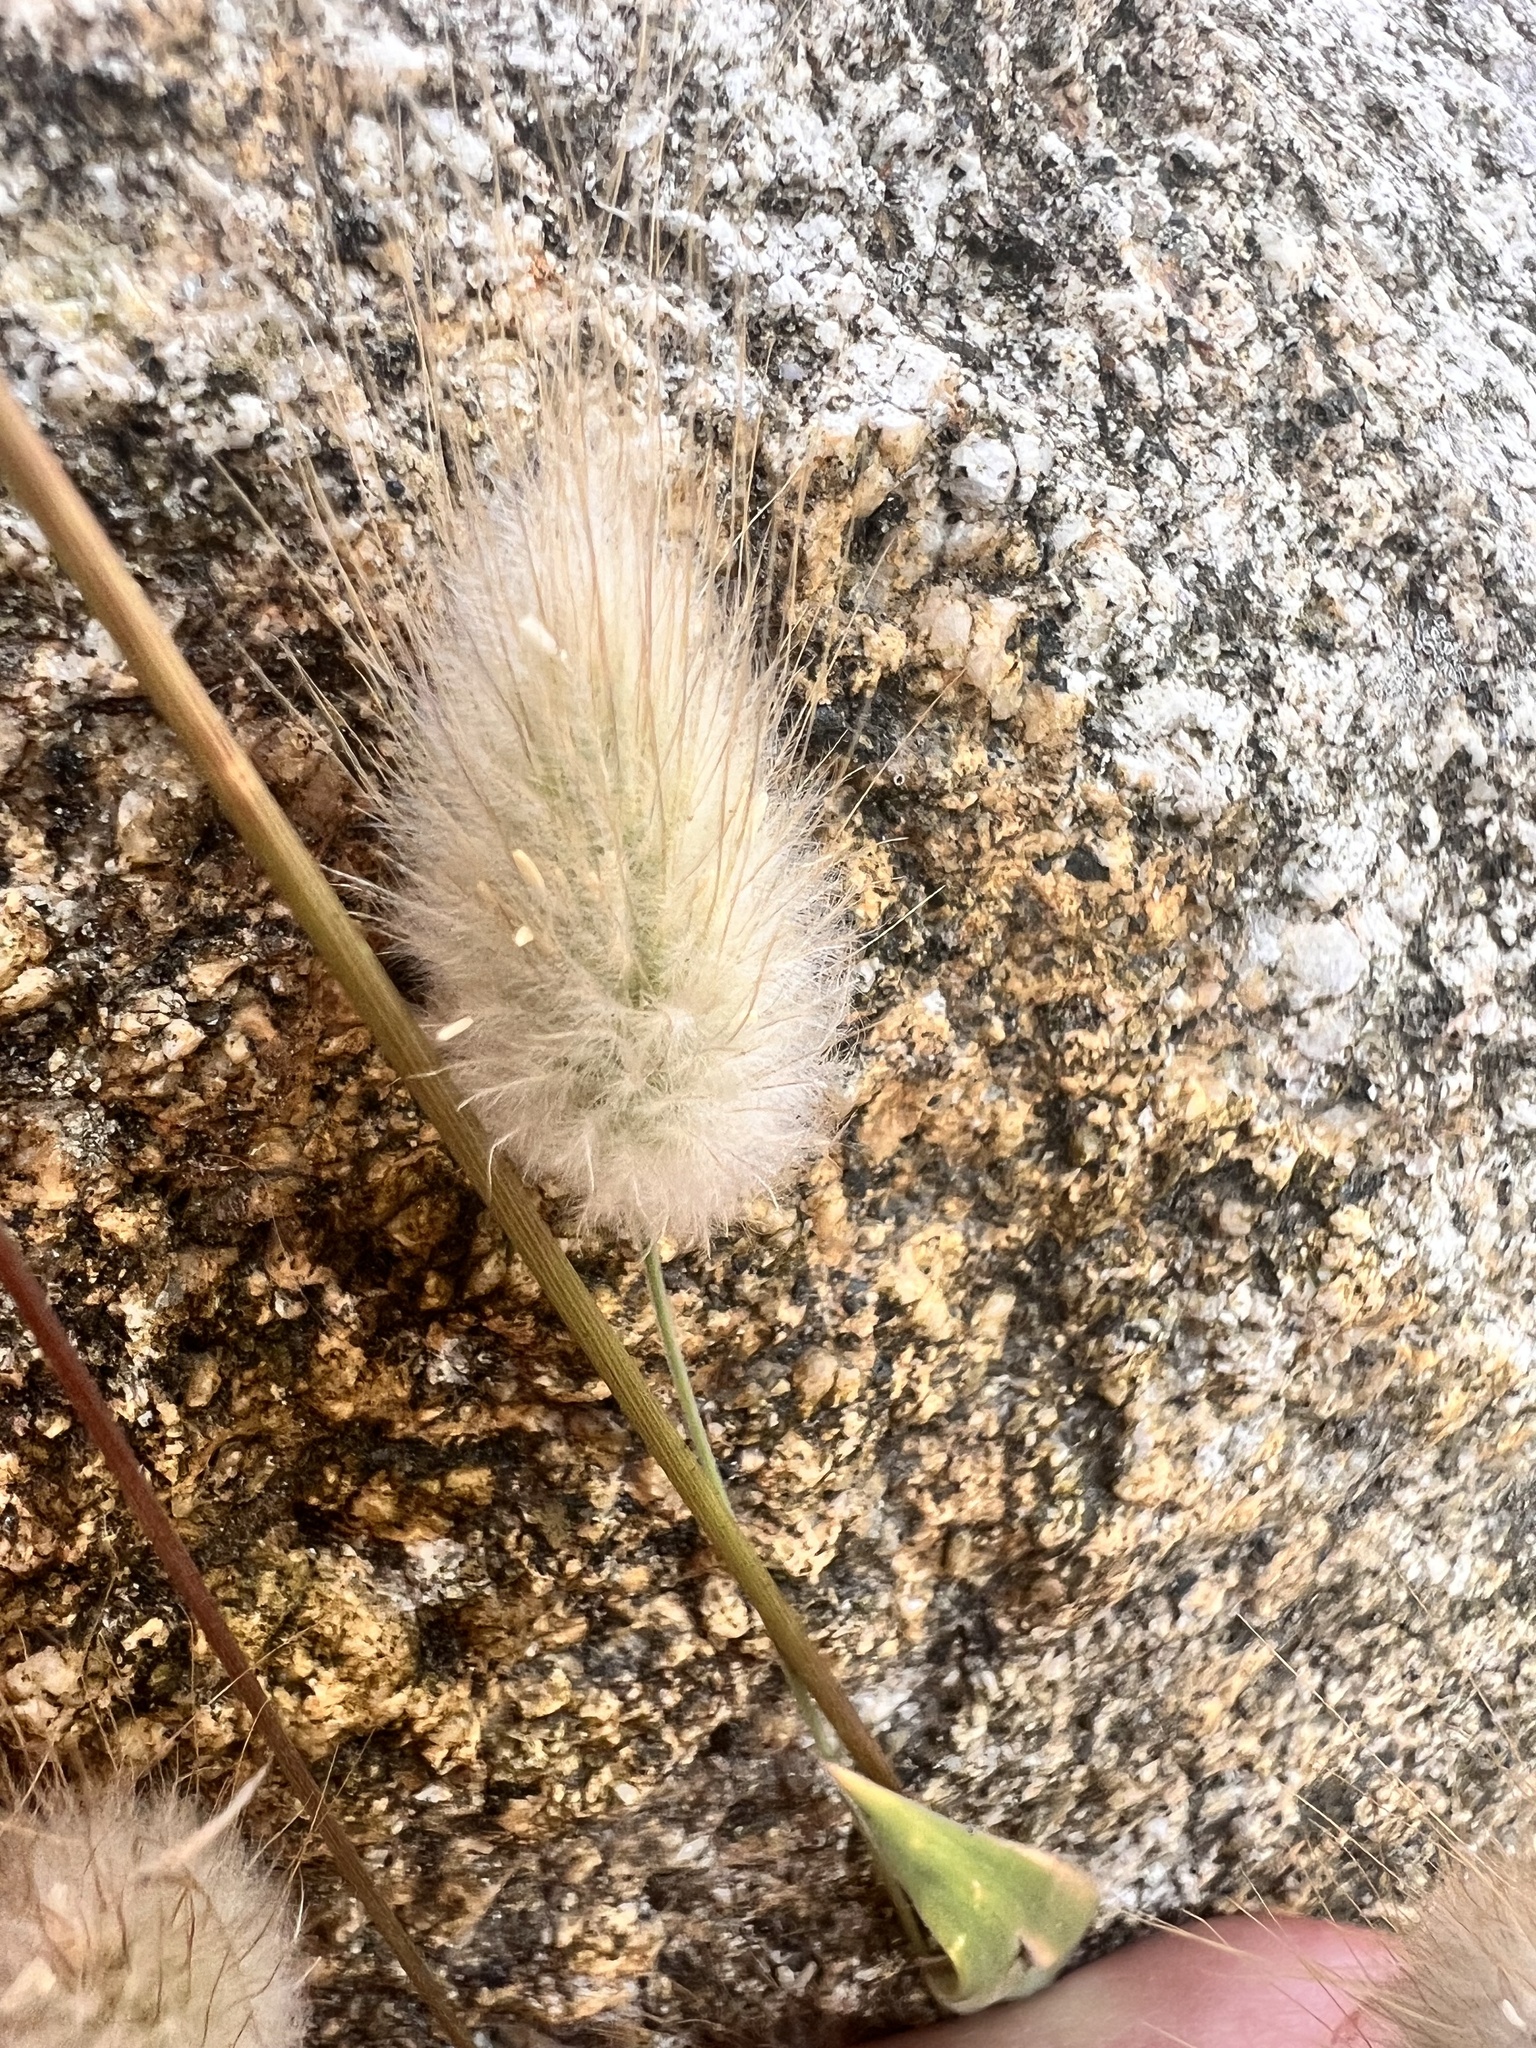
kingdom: Plantae
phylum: Tracheophyta
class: Liliopsida
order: Poales
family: Poaceae
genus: Lagurus
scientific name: Lagurus ovatus
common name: Hare's-tail
